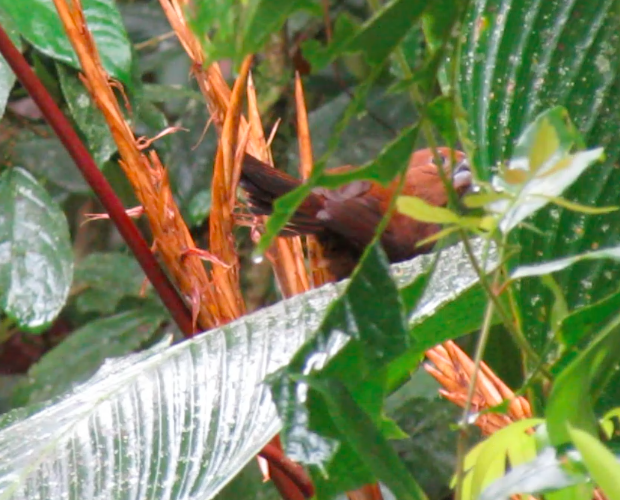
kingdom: Animalia
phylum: Chordata
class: Aves
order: Passeriformes
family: Thraupidae
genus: Sporophila
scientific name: Sporophila funerea
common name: Thick-billed seed-finch
